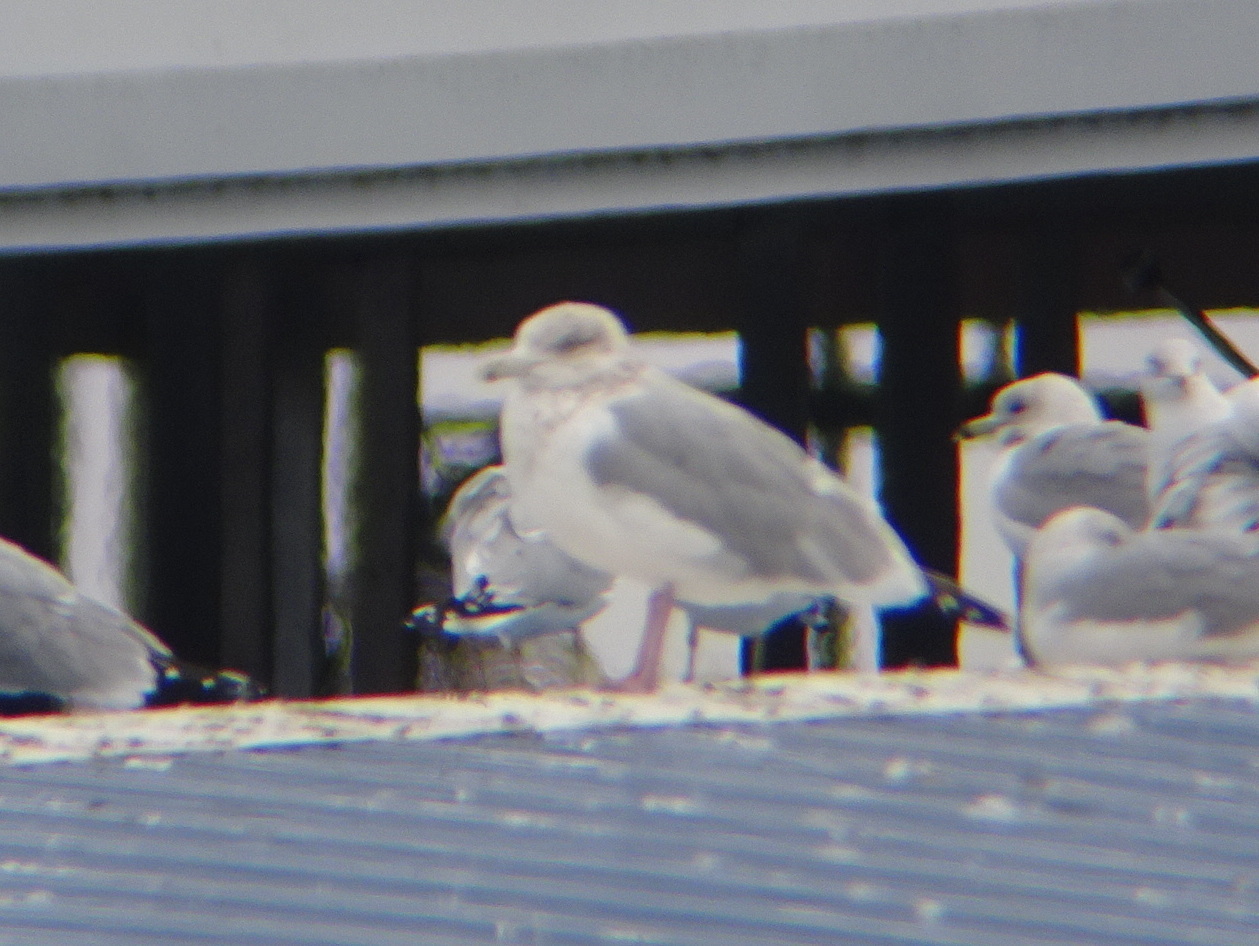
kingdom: Animalia
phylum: Chordata
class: Aves
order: Charadriiformes
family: Laridae
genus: Larus
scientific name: Larus argentatus
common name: Herring gull
